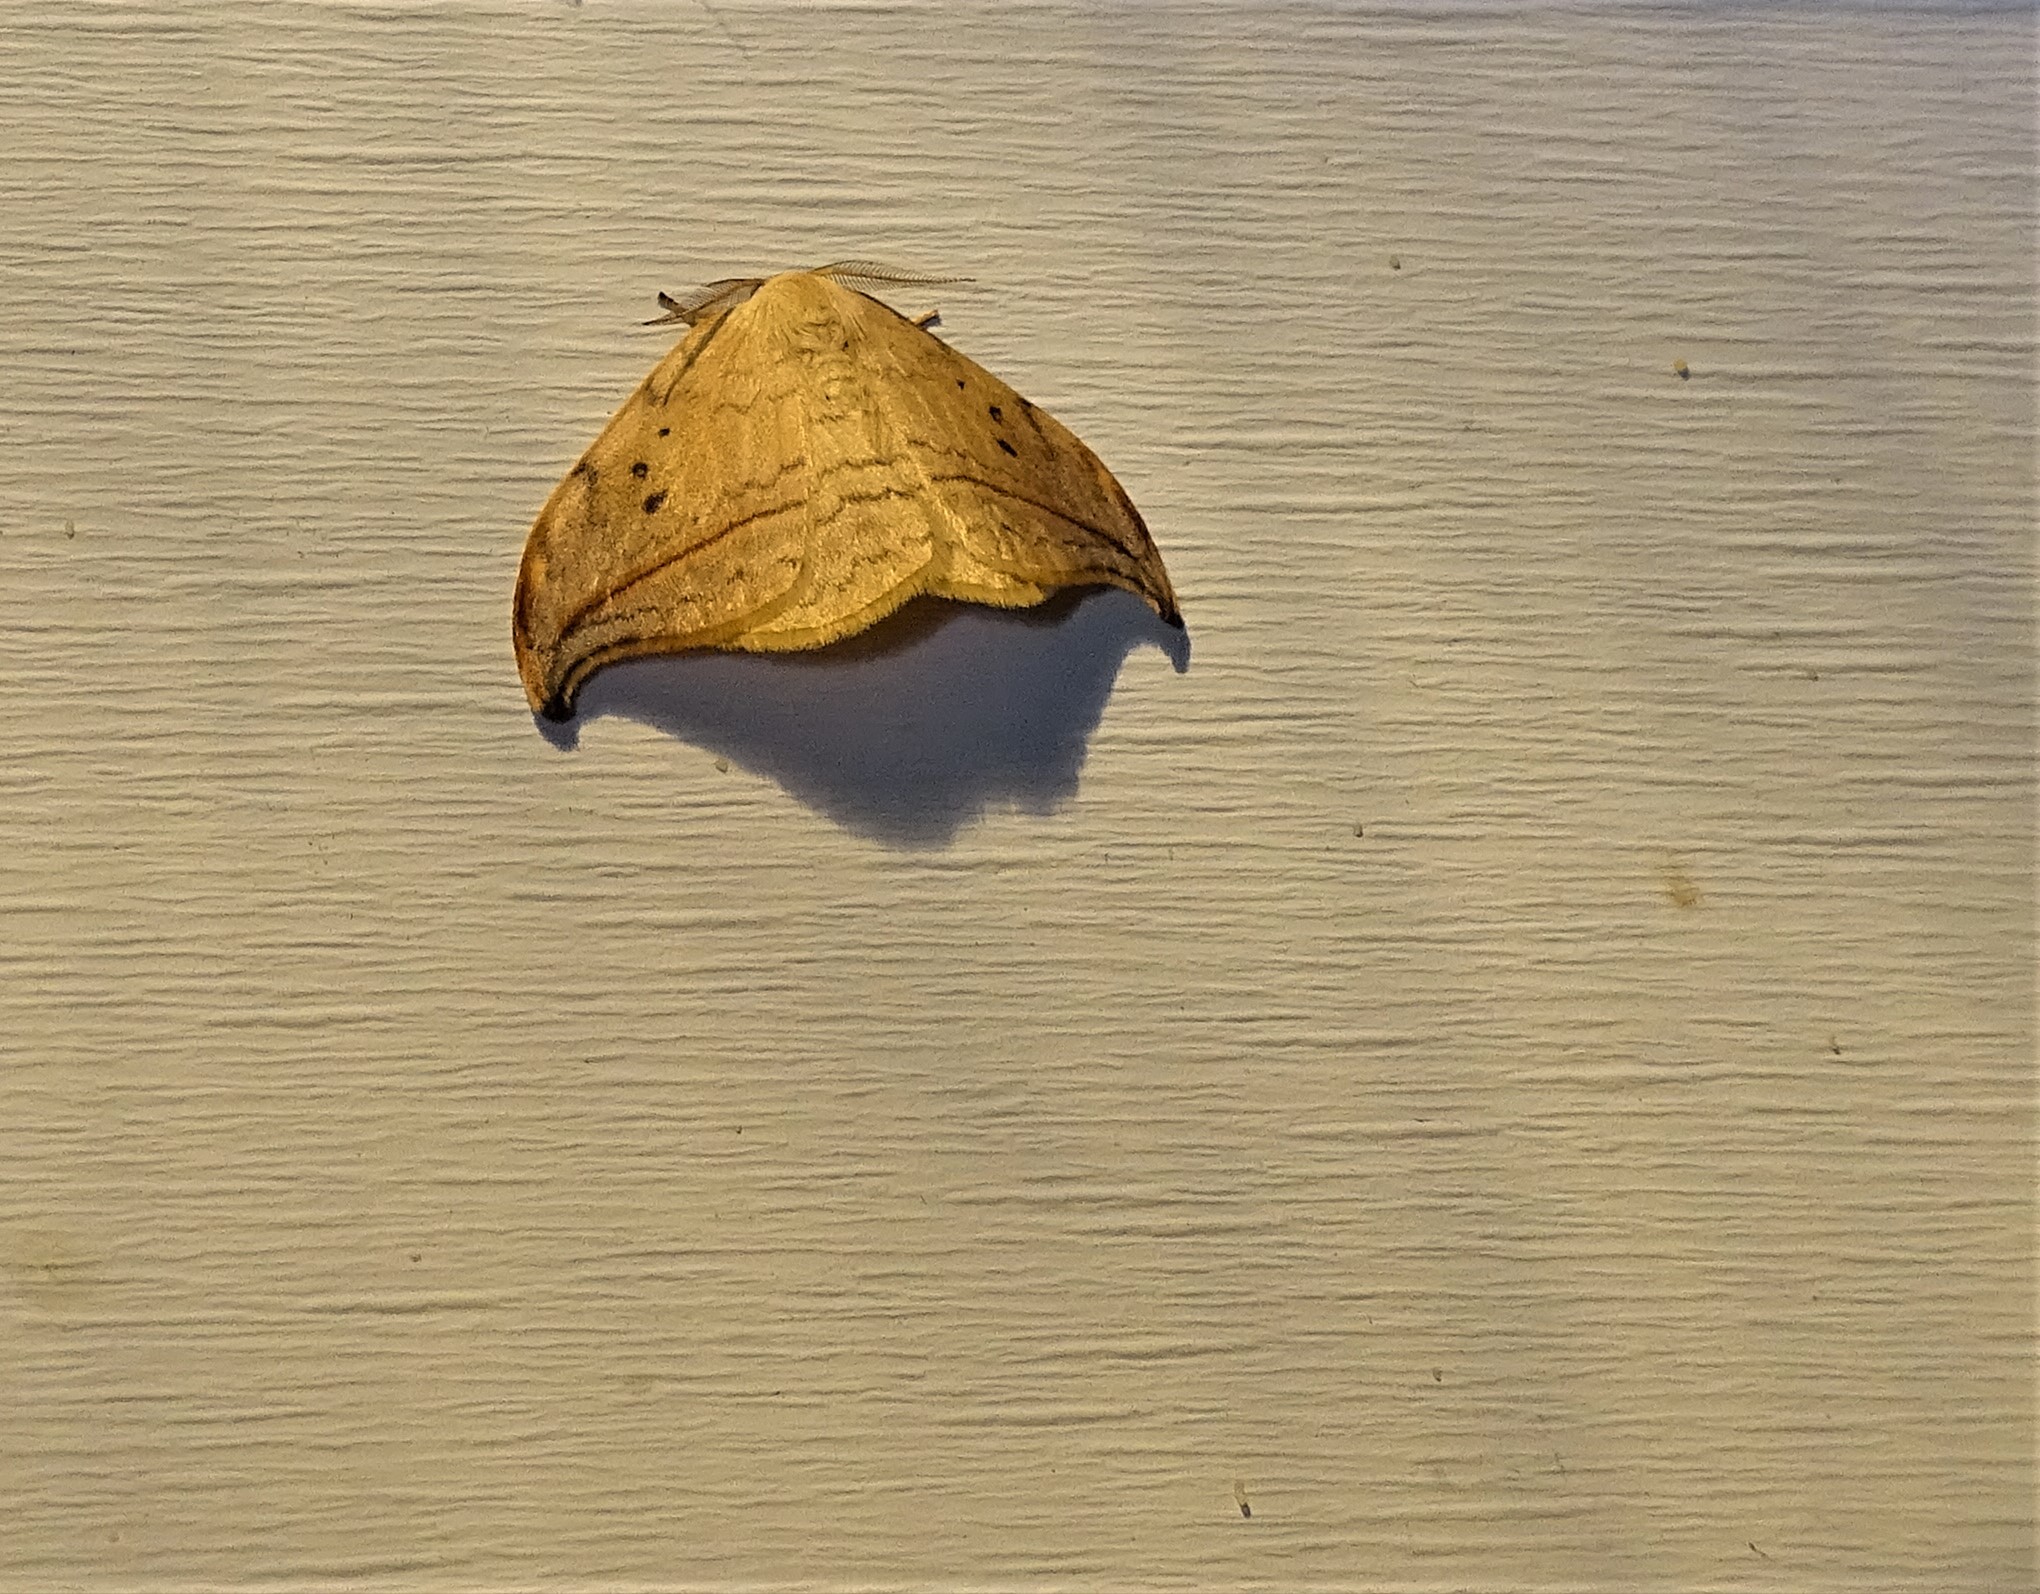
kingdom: Animalia
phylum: Arthropoda
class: Insecta
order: Lepidoptera
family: Drepanidae
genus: Drepana
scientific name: Drepana arcuata
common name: Arched hooktip moth
